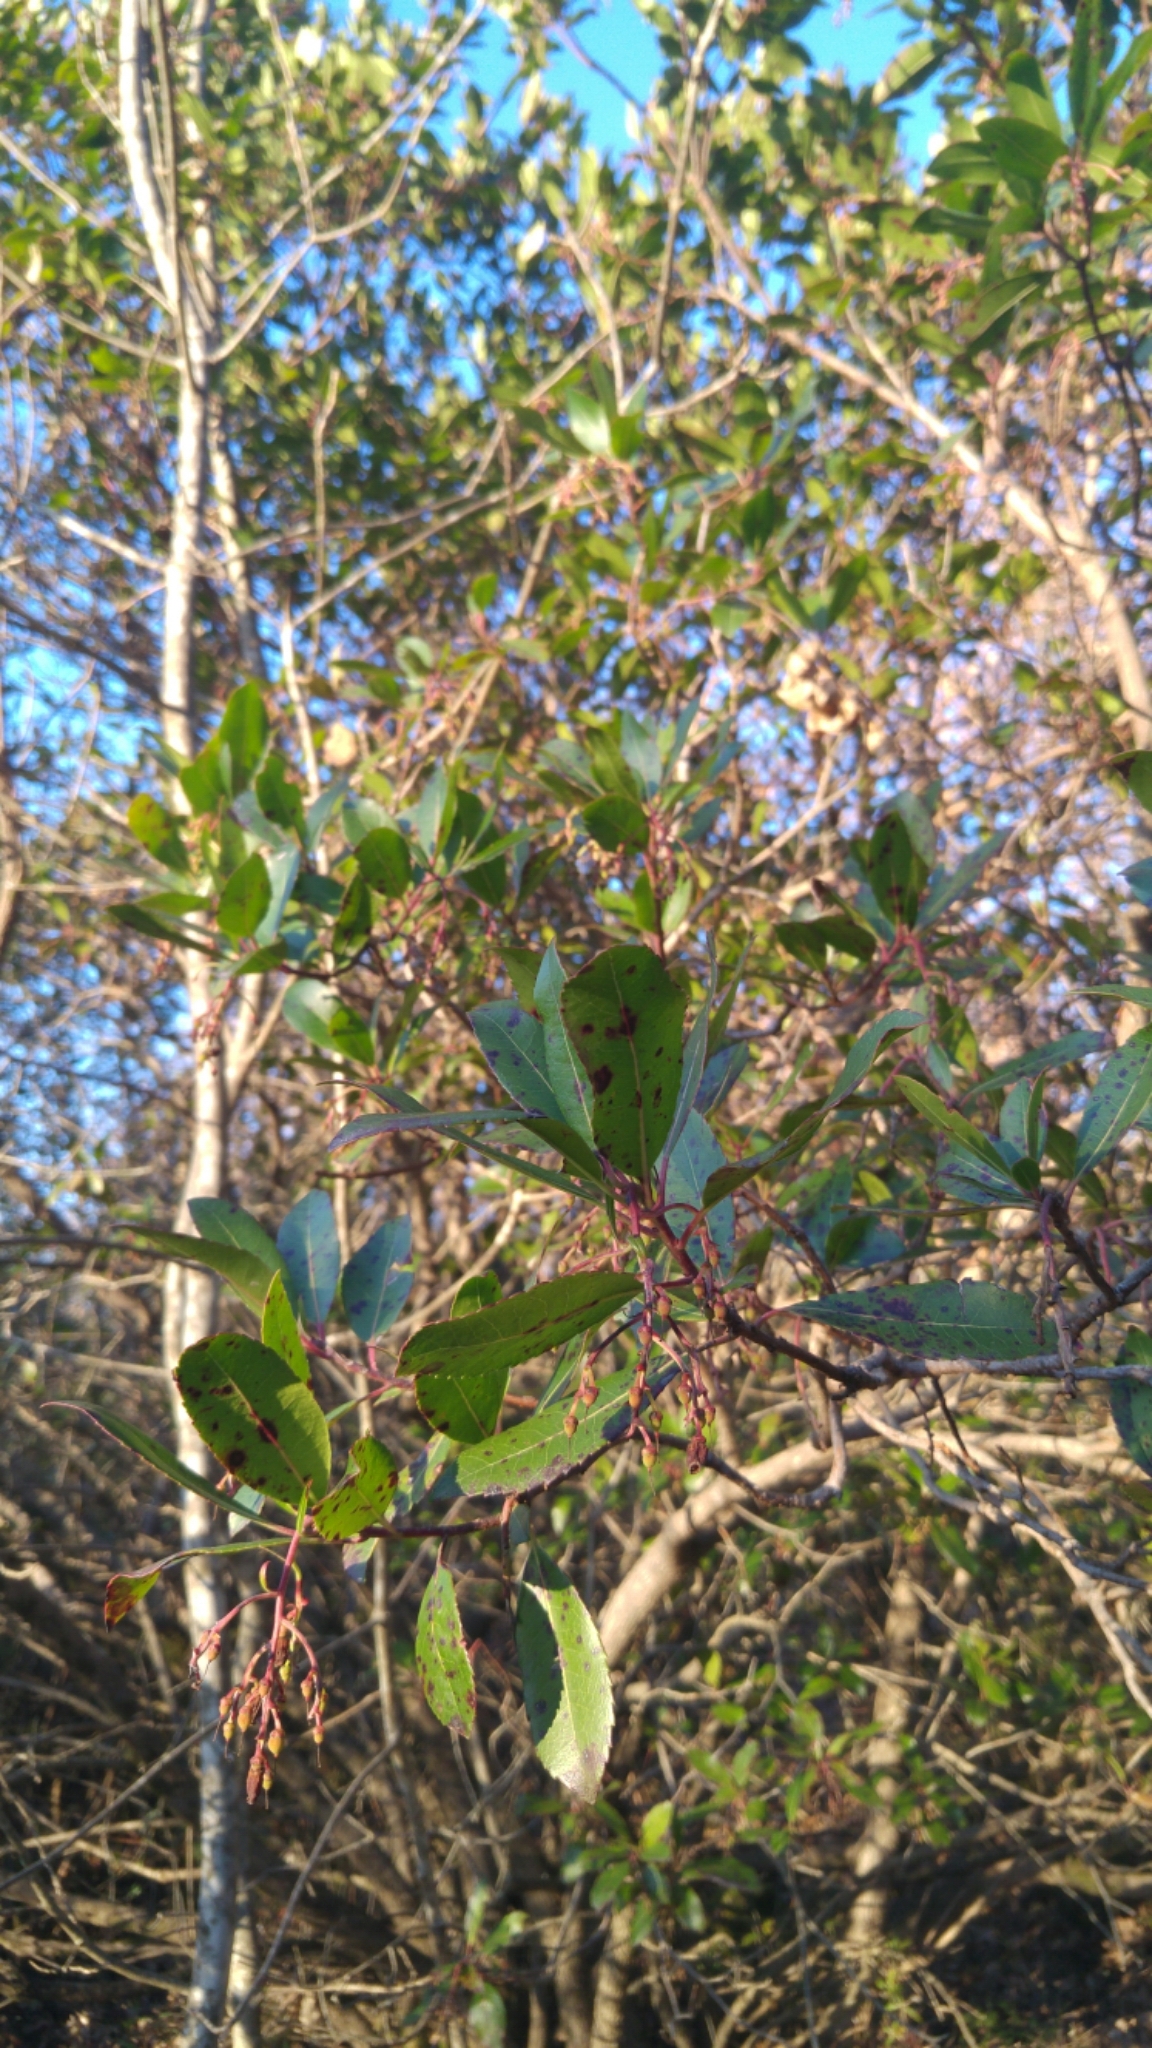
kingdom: Plantae
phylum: Tracheophyta
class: Magnoliopsida
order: Ericales
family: Ericaceae
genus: Arbutus
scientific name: Arbutus unedo
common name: Strawberry-tree
